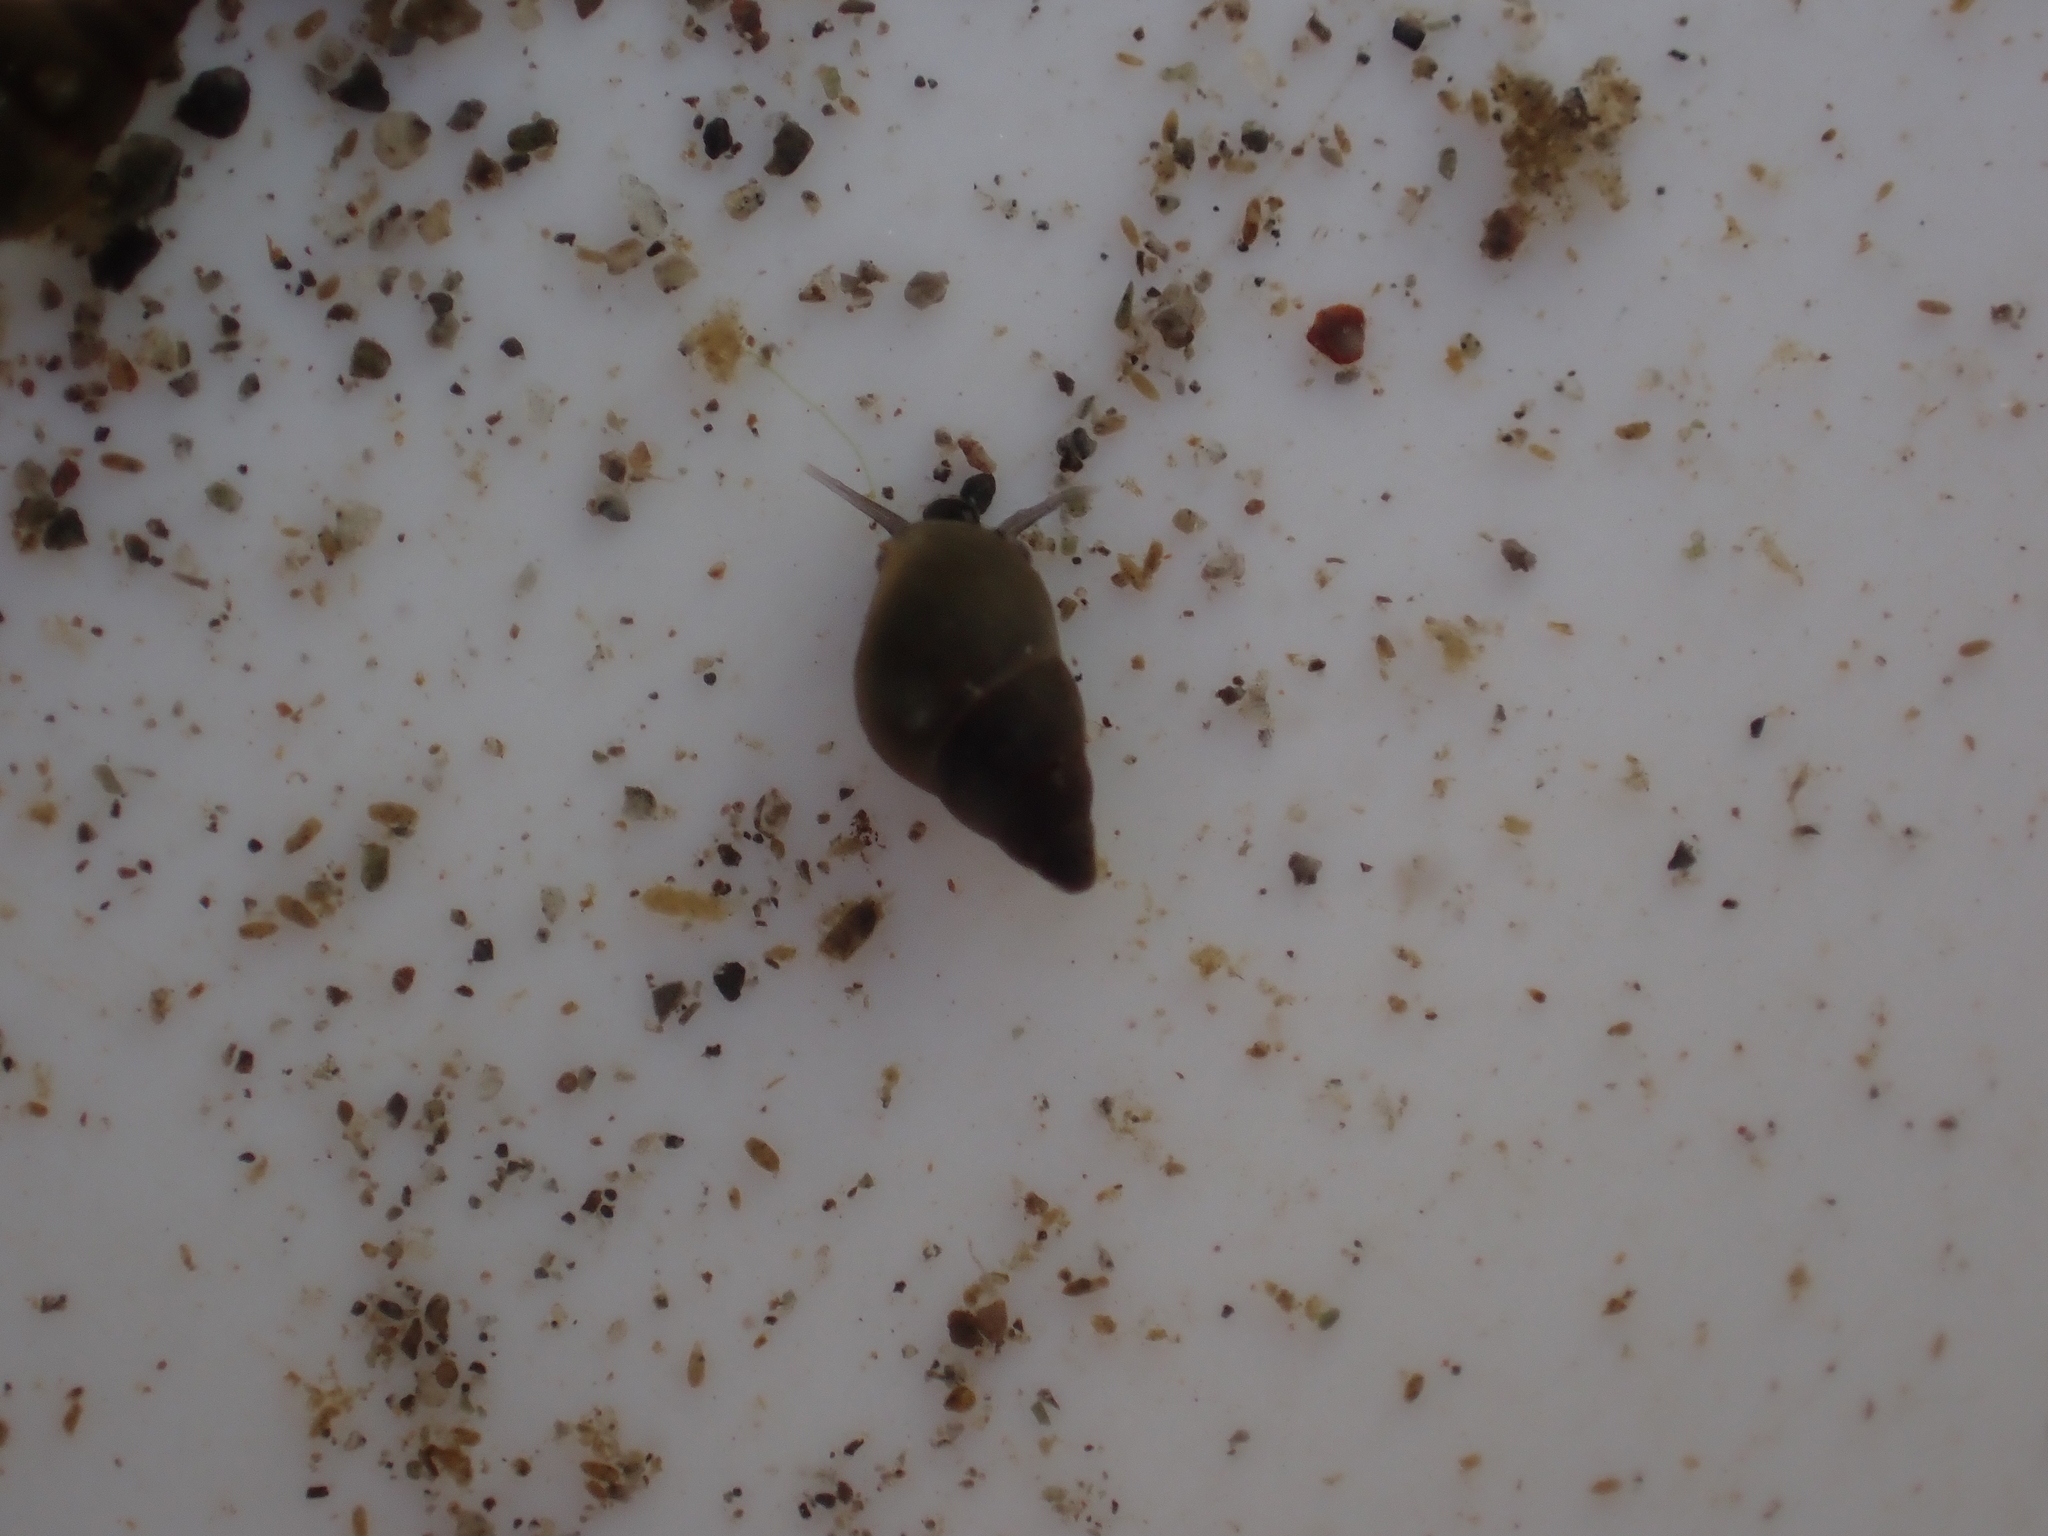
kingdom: Animalia
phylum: Mollusca
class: Gastropoda
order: Littorinimorpha
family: Tateidae
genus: Potamopyrgus
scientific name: Potamopyrgus antipodarum
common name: Jenkins' spire snail
